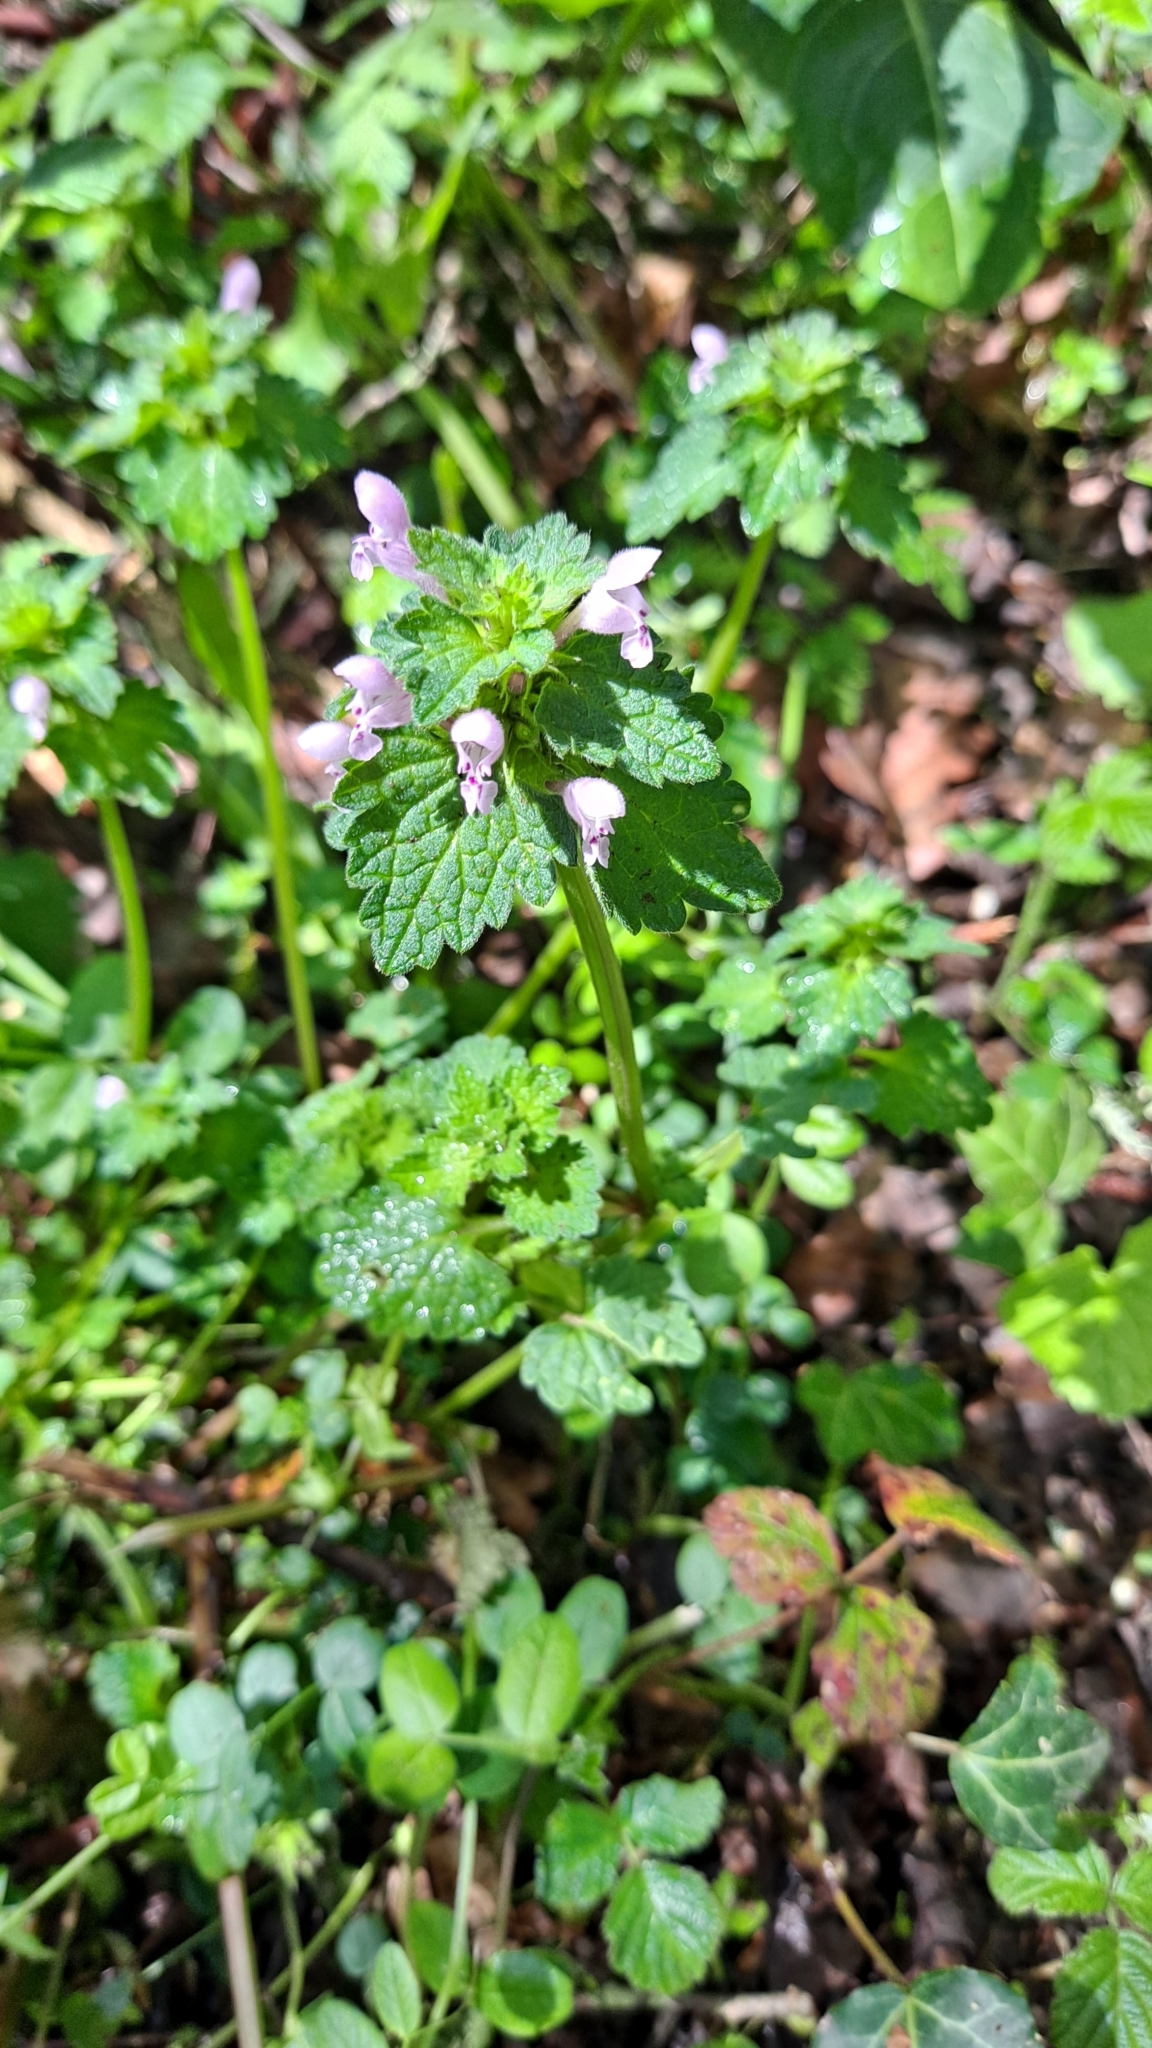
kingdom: Plantae
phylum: Tracheophyta
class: Magnoliopsida
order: Lamiales
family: Lamiaceae
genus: Lamium
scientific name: Lamium hybridum
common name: Cut-leaved dead-nettle
